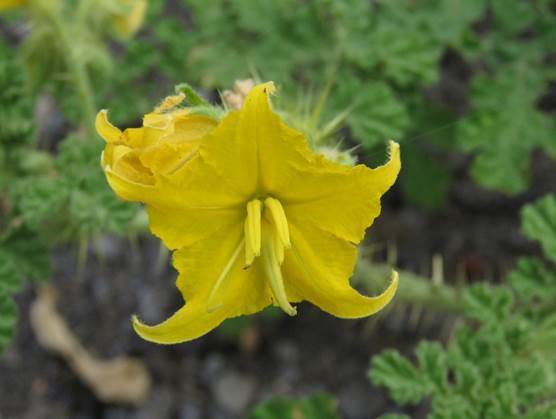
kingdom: Plantae
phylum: Tracheophyta
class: Magnoliopsida
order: Solanales
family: Solanaceae
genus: Solanum
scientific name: Solanum angustifolium
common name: Buffalobur nightshade
